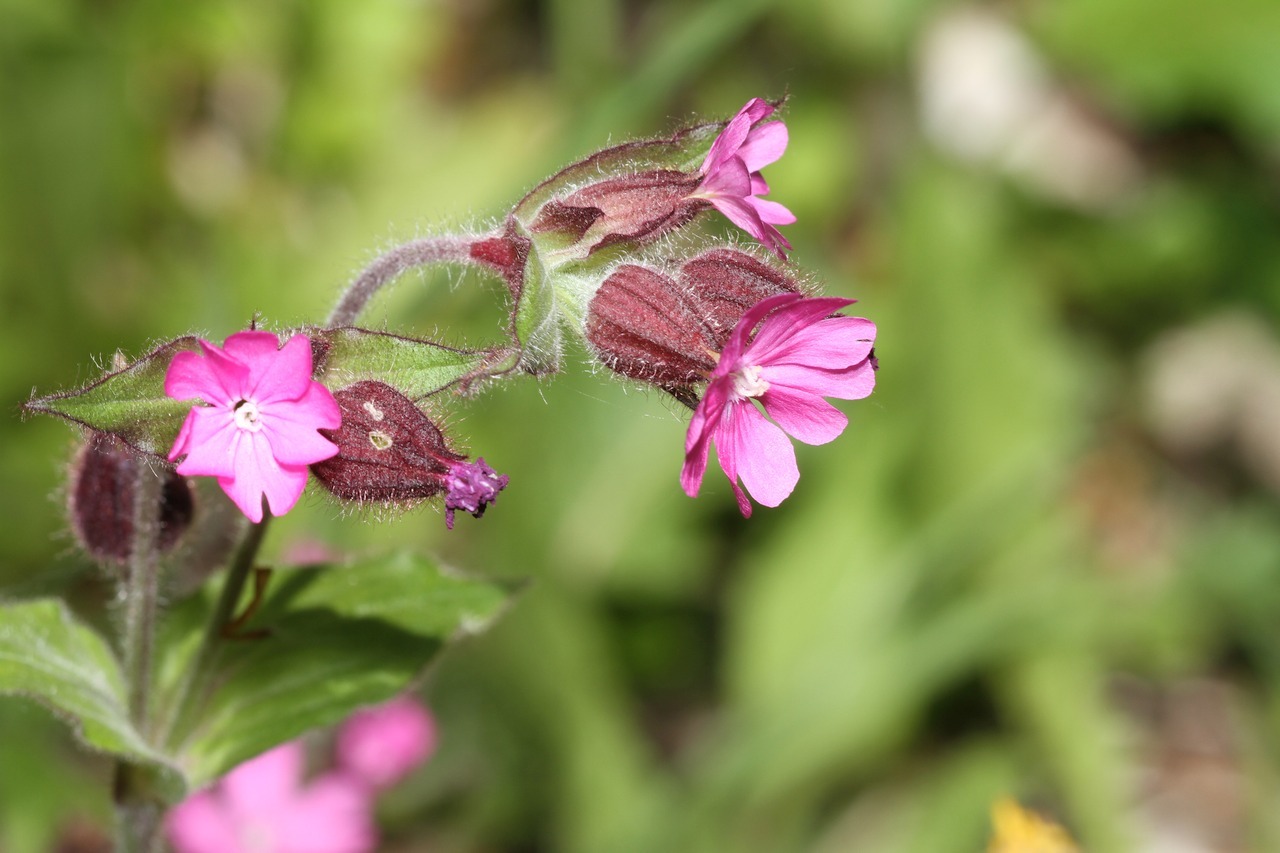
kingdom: Plantae
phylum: Tracheophyta
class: Magnoliopsida
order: Caryophyllales
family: Caryophyllaceae
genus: Silene
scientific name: Silene dioica
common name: Red campion
